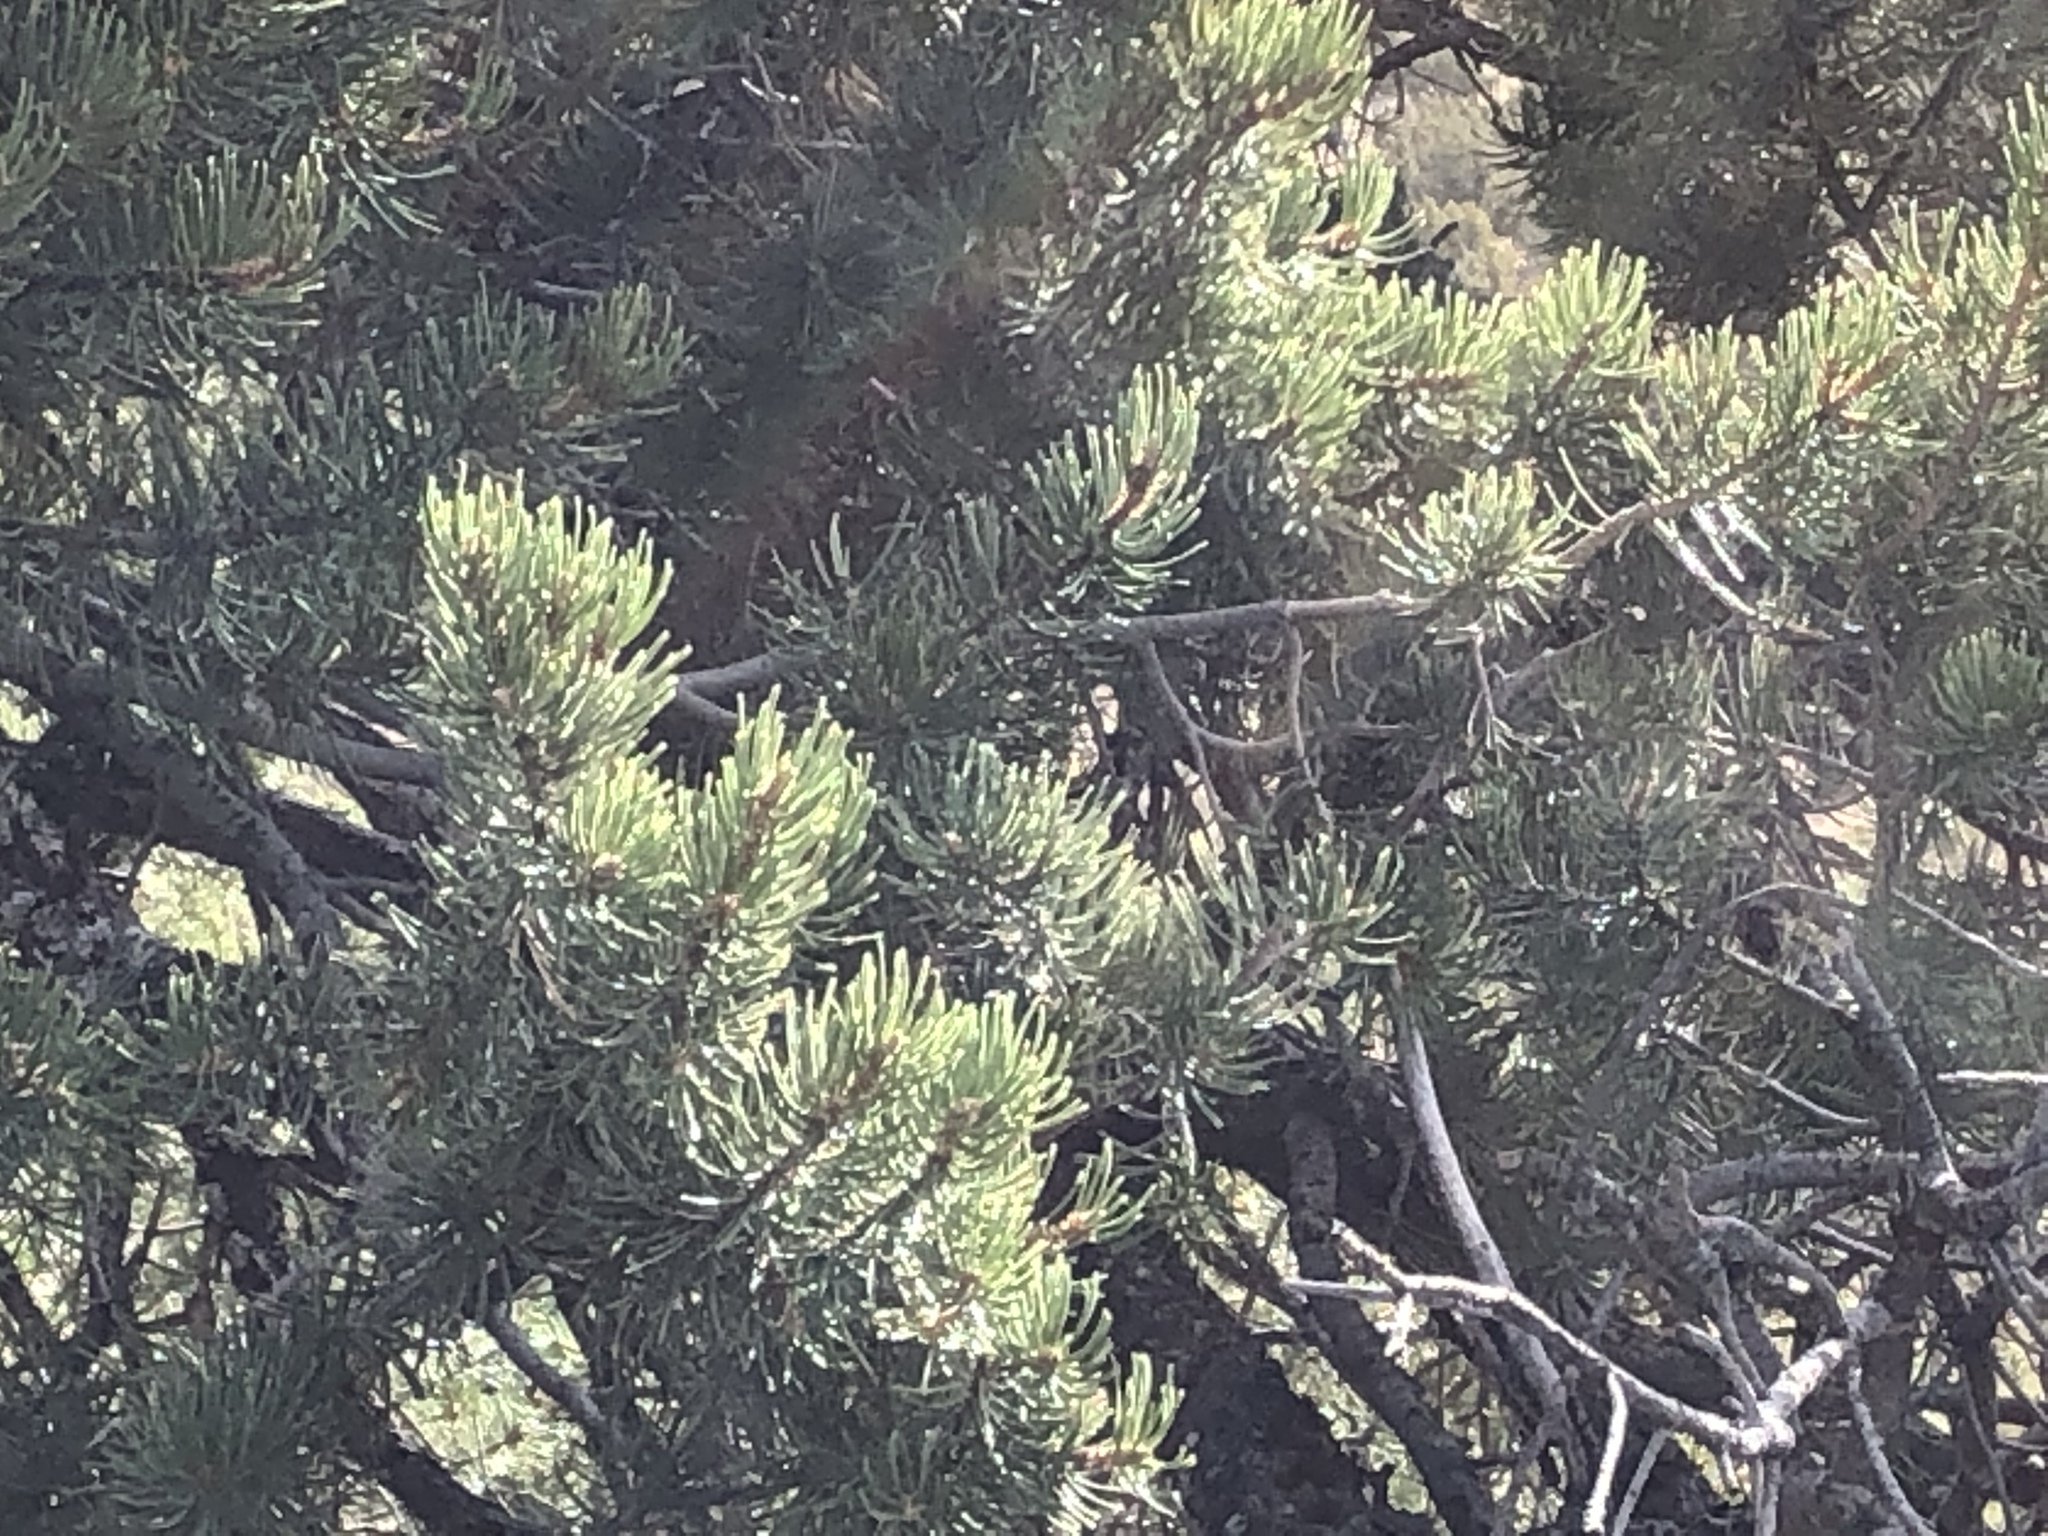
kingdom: Plantae
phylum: Tracheophyta
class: Pinopsida
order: Pinales
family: Pinaceae
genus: Pinus
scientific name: Pinus edulis
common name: Colorado pinyon
